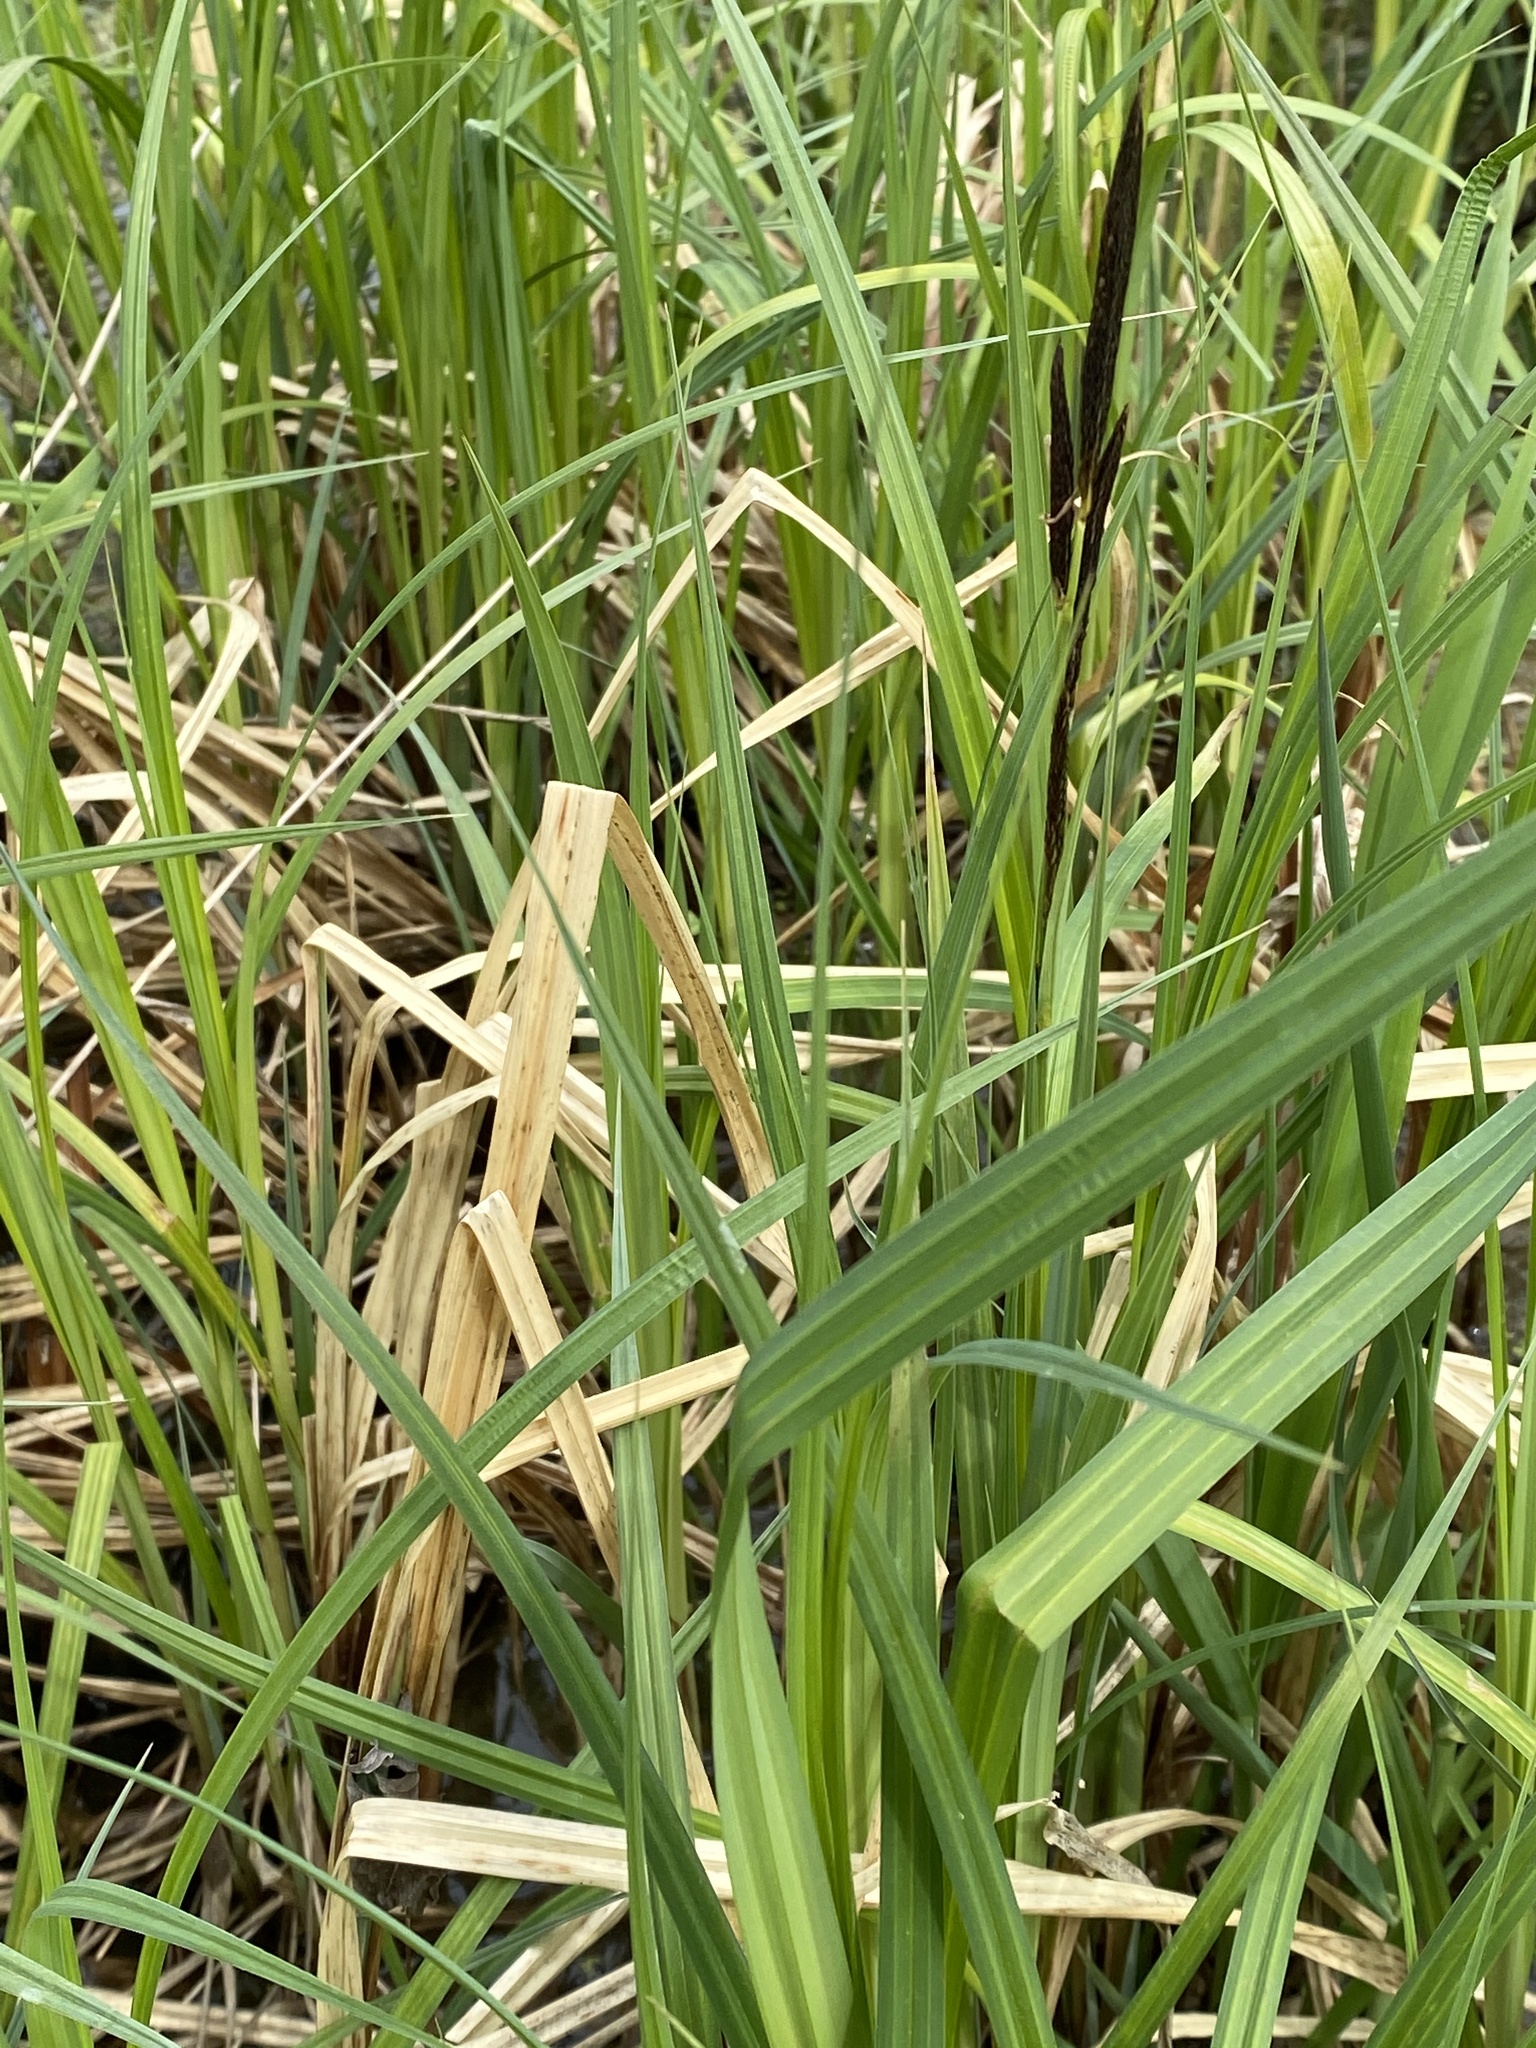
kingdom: Plantae
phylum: Tracheophyta
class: Liliopsida
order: Poales
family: Cyperaceae
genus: Carex
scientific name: Carex lacustris
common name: Common lake sedge
